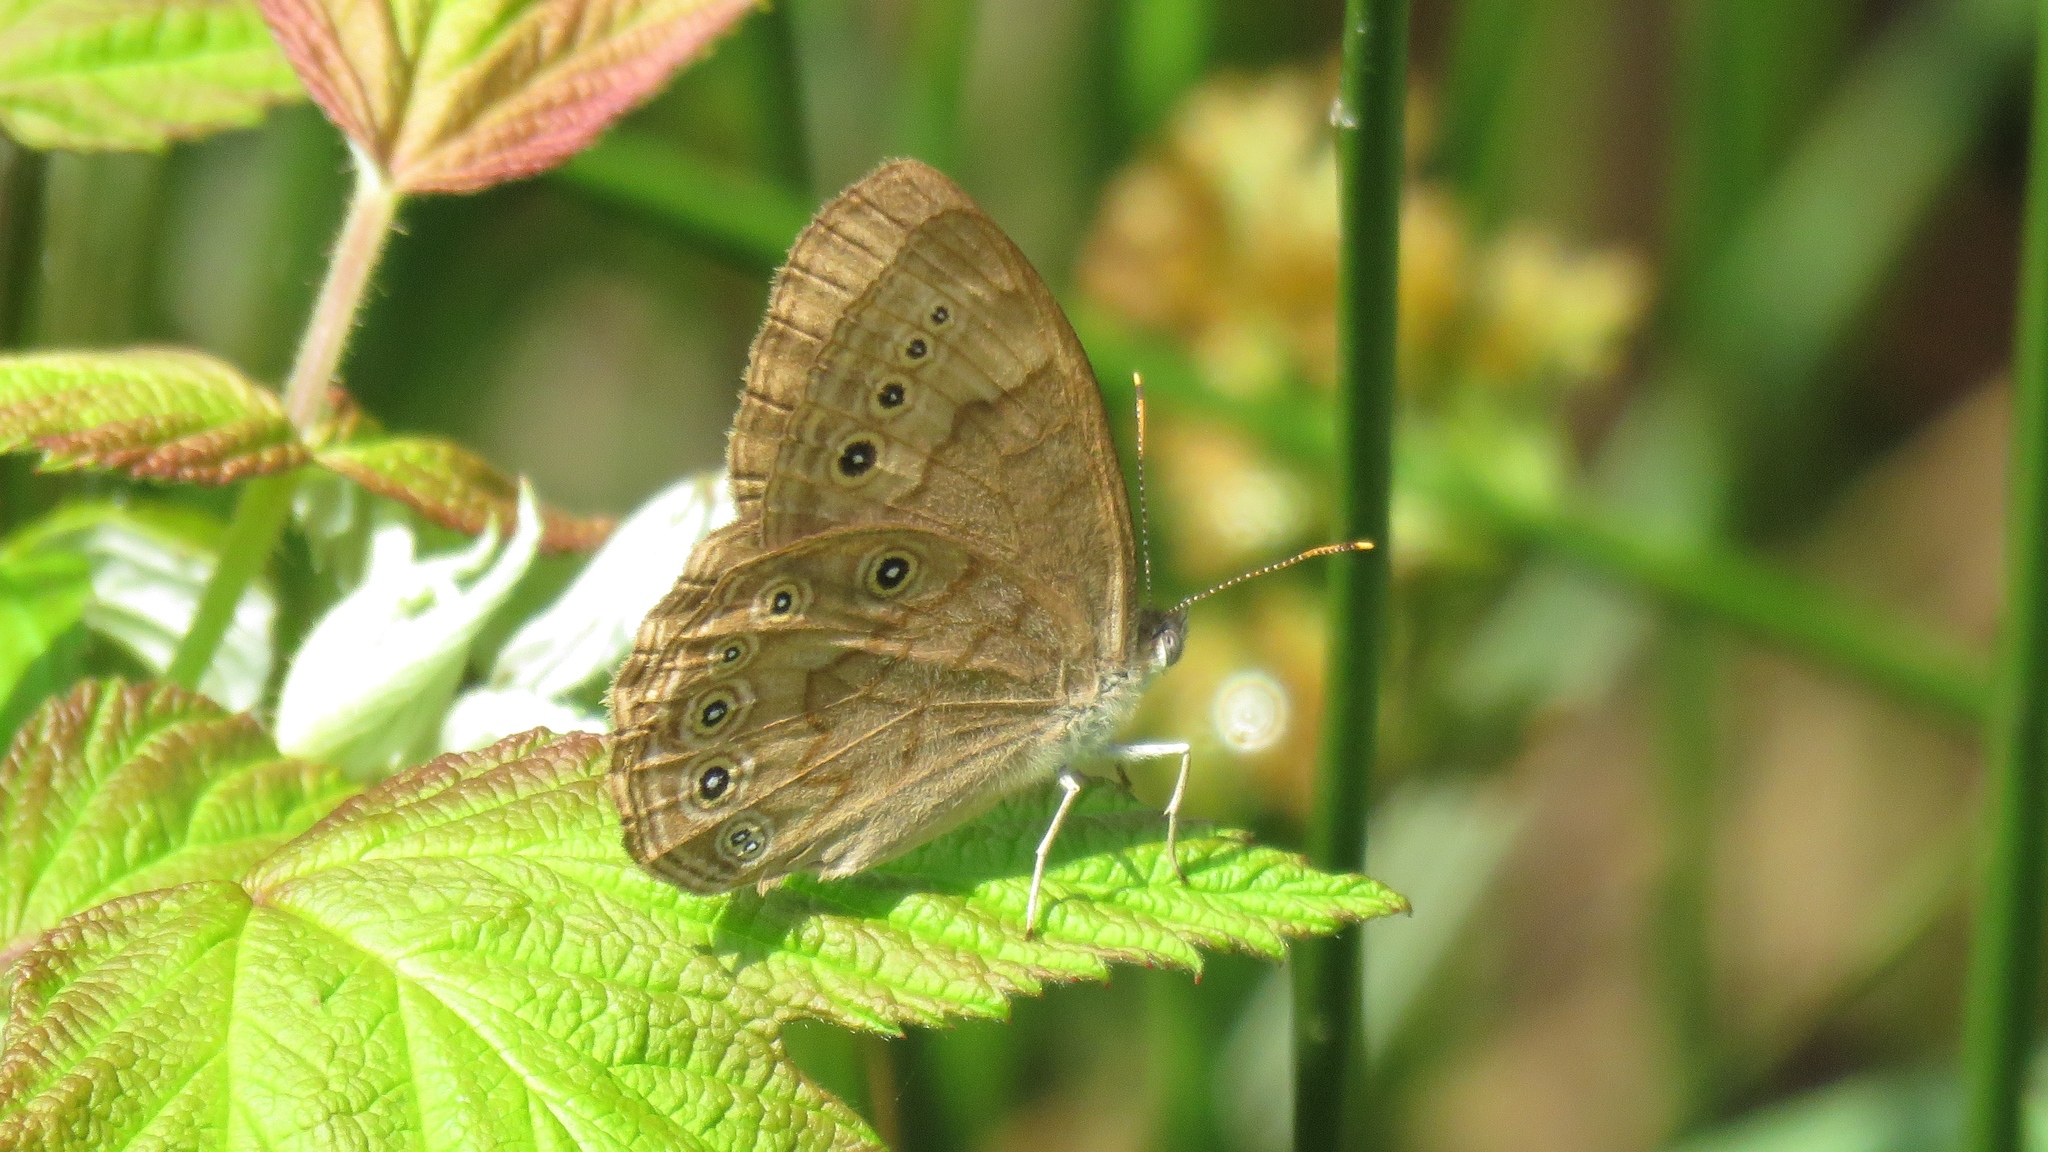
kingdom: Animalia
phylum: Arthropoda
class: Insecta
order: Lepidoptera
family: Nymphalidae
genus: Lethe
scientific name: Lethe eurydice
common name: Eyed brown
